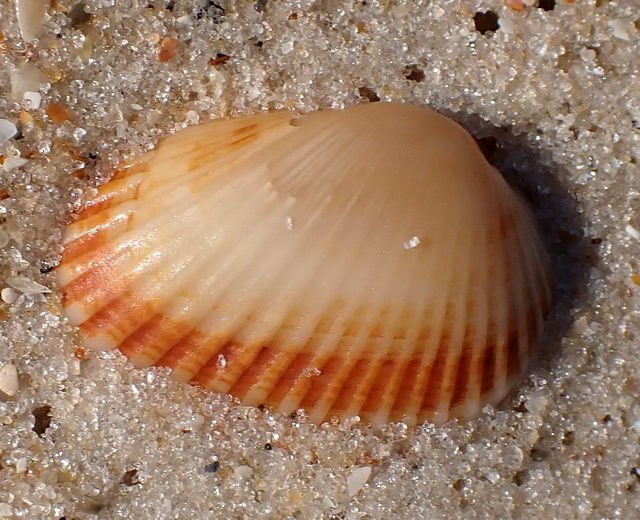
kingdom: Animalia
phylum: Mollusca
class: Bivalvia
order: Arcida
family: Arcidae
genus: Anadara
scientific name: Anadara transversa
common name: Transverse ark
